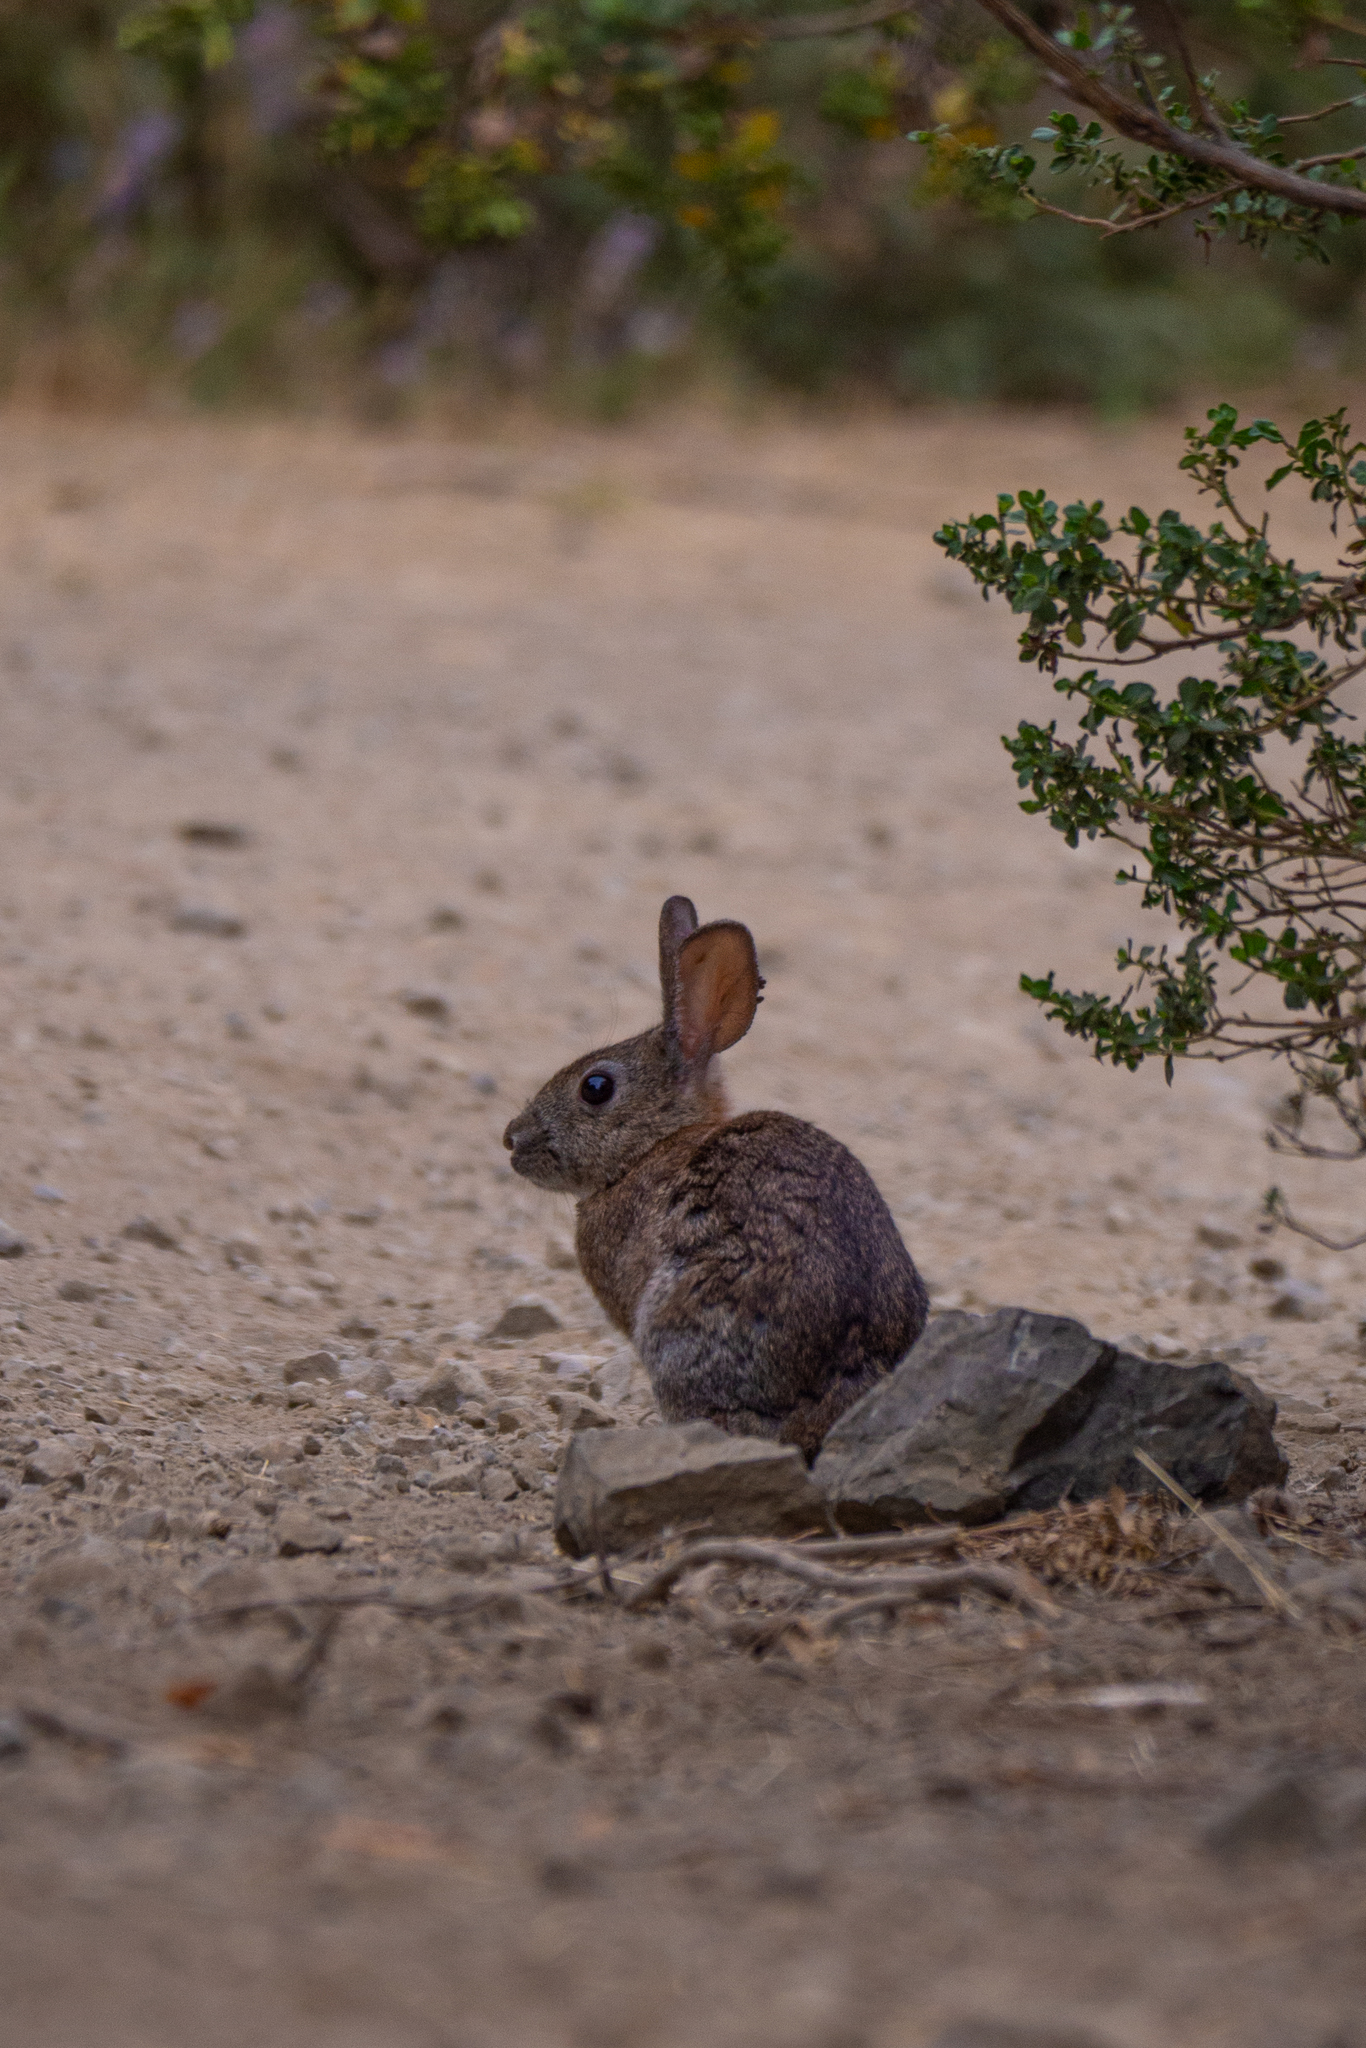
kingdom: Animalia
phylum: Chordata
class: Mammalia
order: Lagomorpha
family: Leporidae
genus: Sylvilagus
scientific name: Sylvilagus bachmani
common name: Brush rabbit
